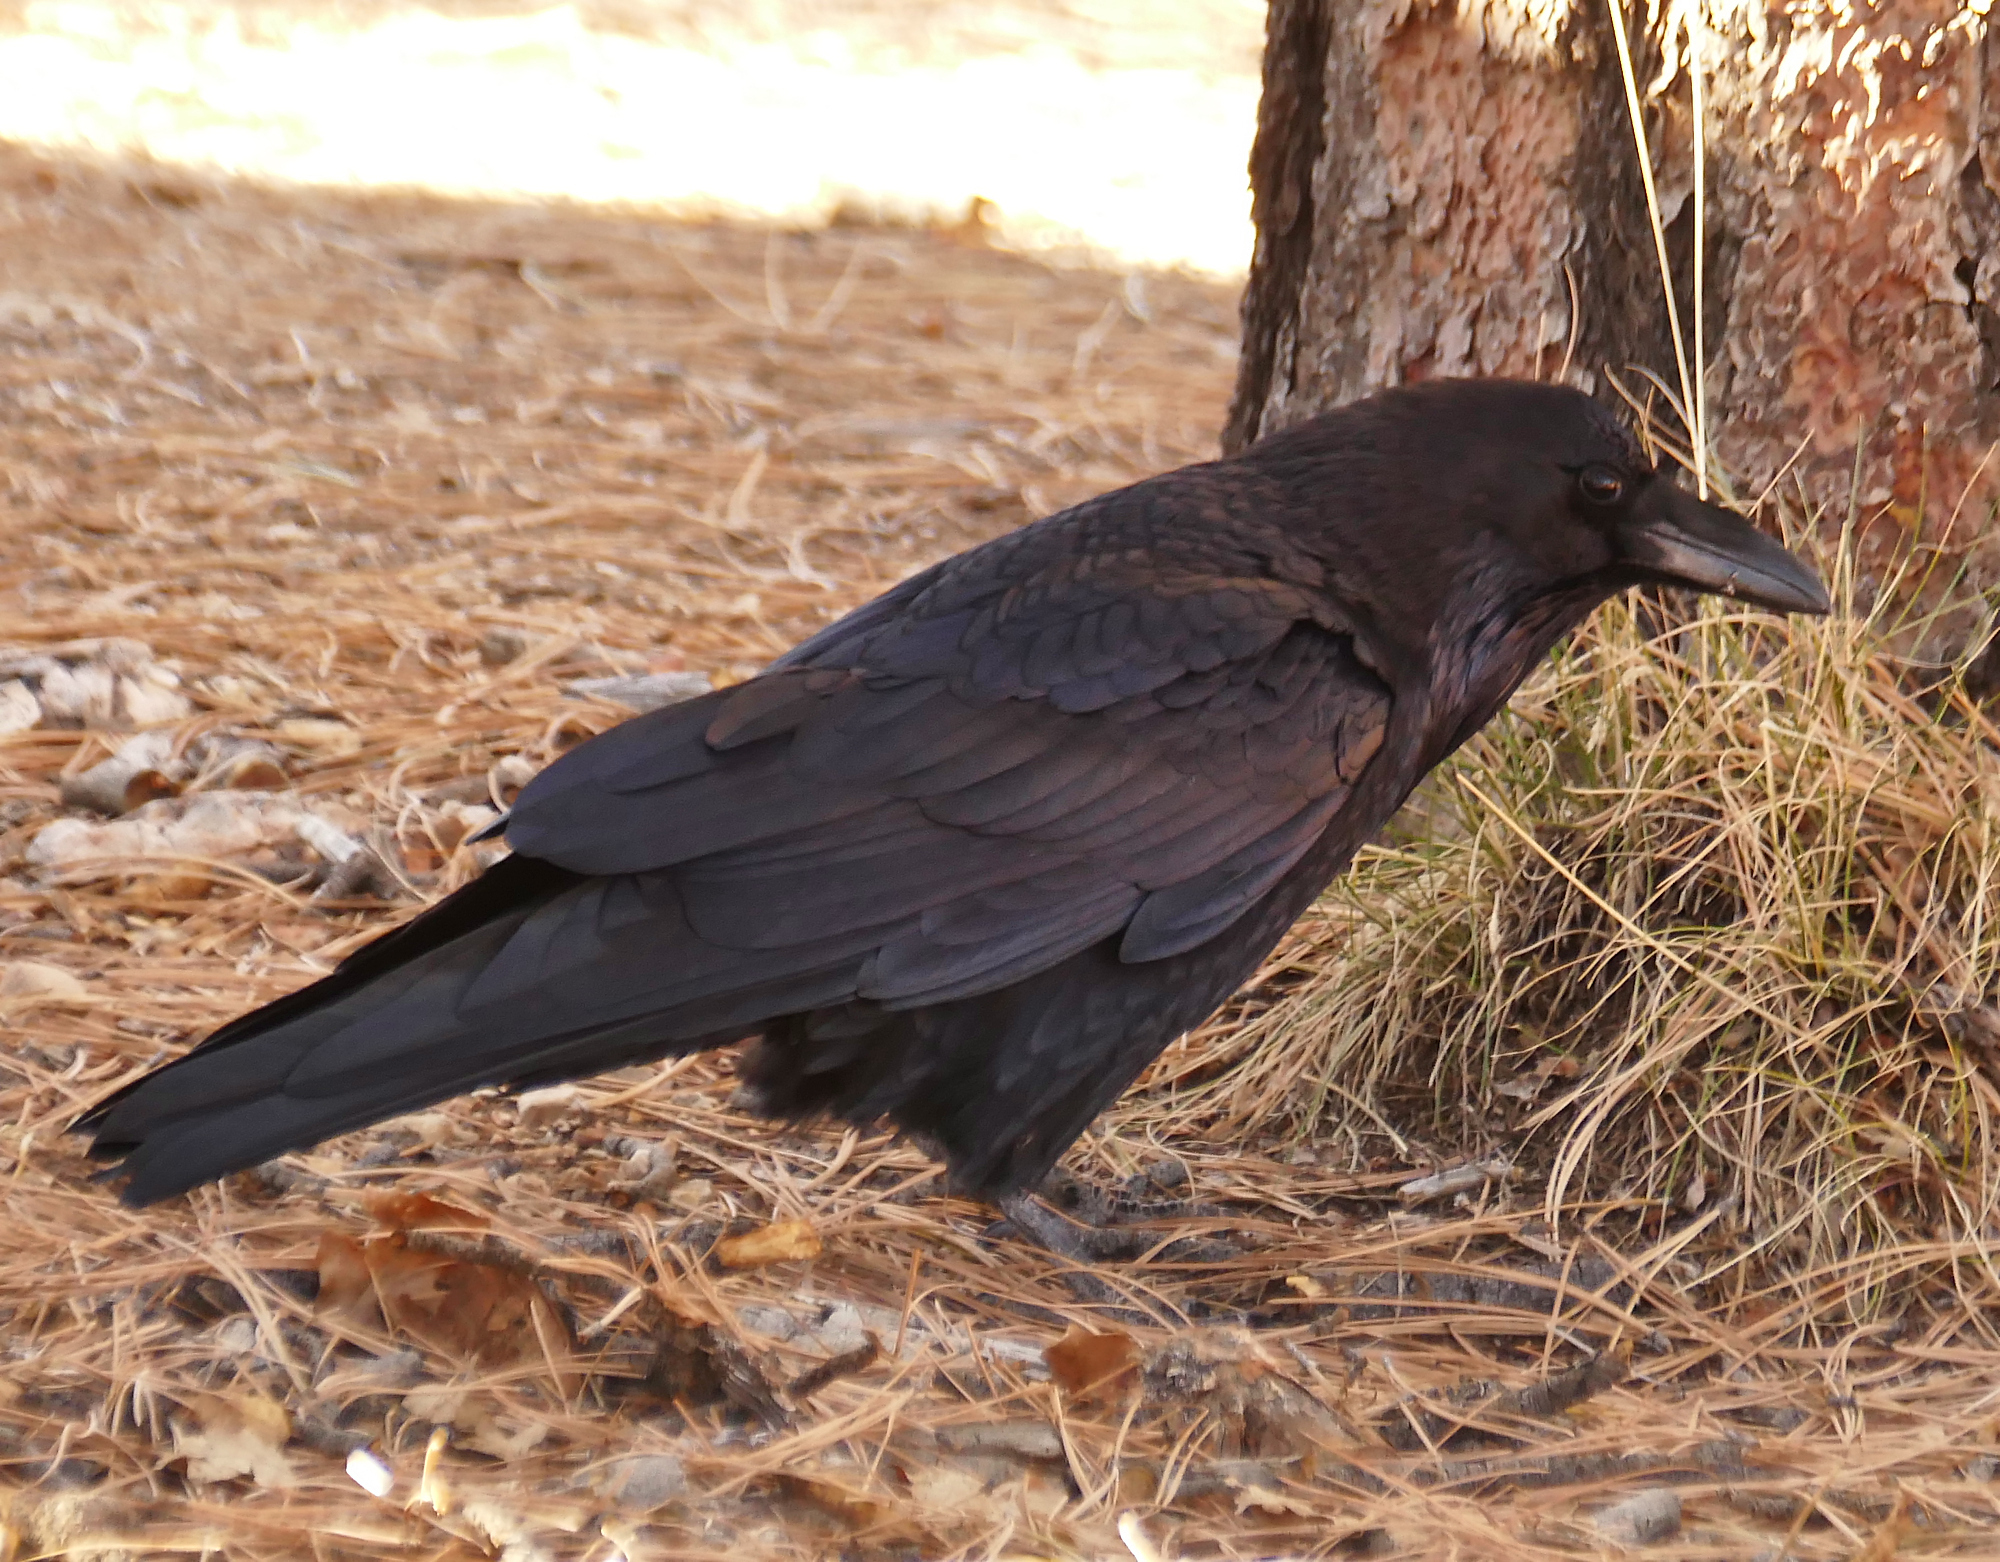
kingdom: Animalia
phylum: Chordata
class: Aves
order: Passeriformes
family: Corvidae
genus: Corvus
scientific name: Corvus corax
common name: Common raven
